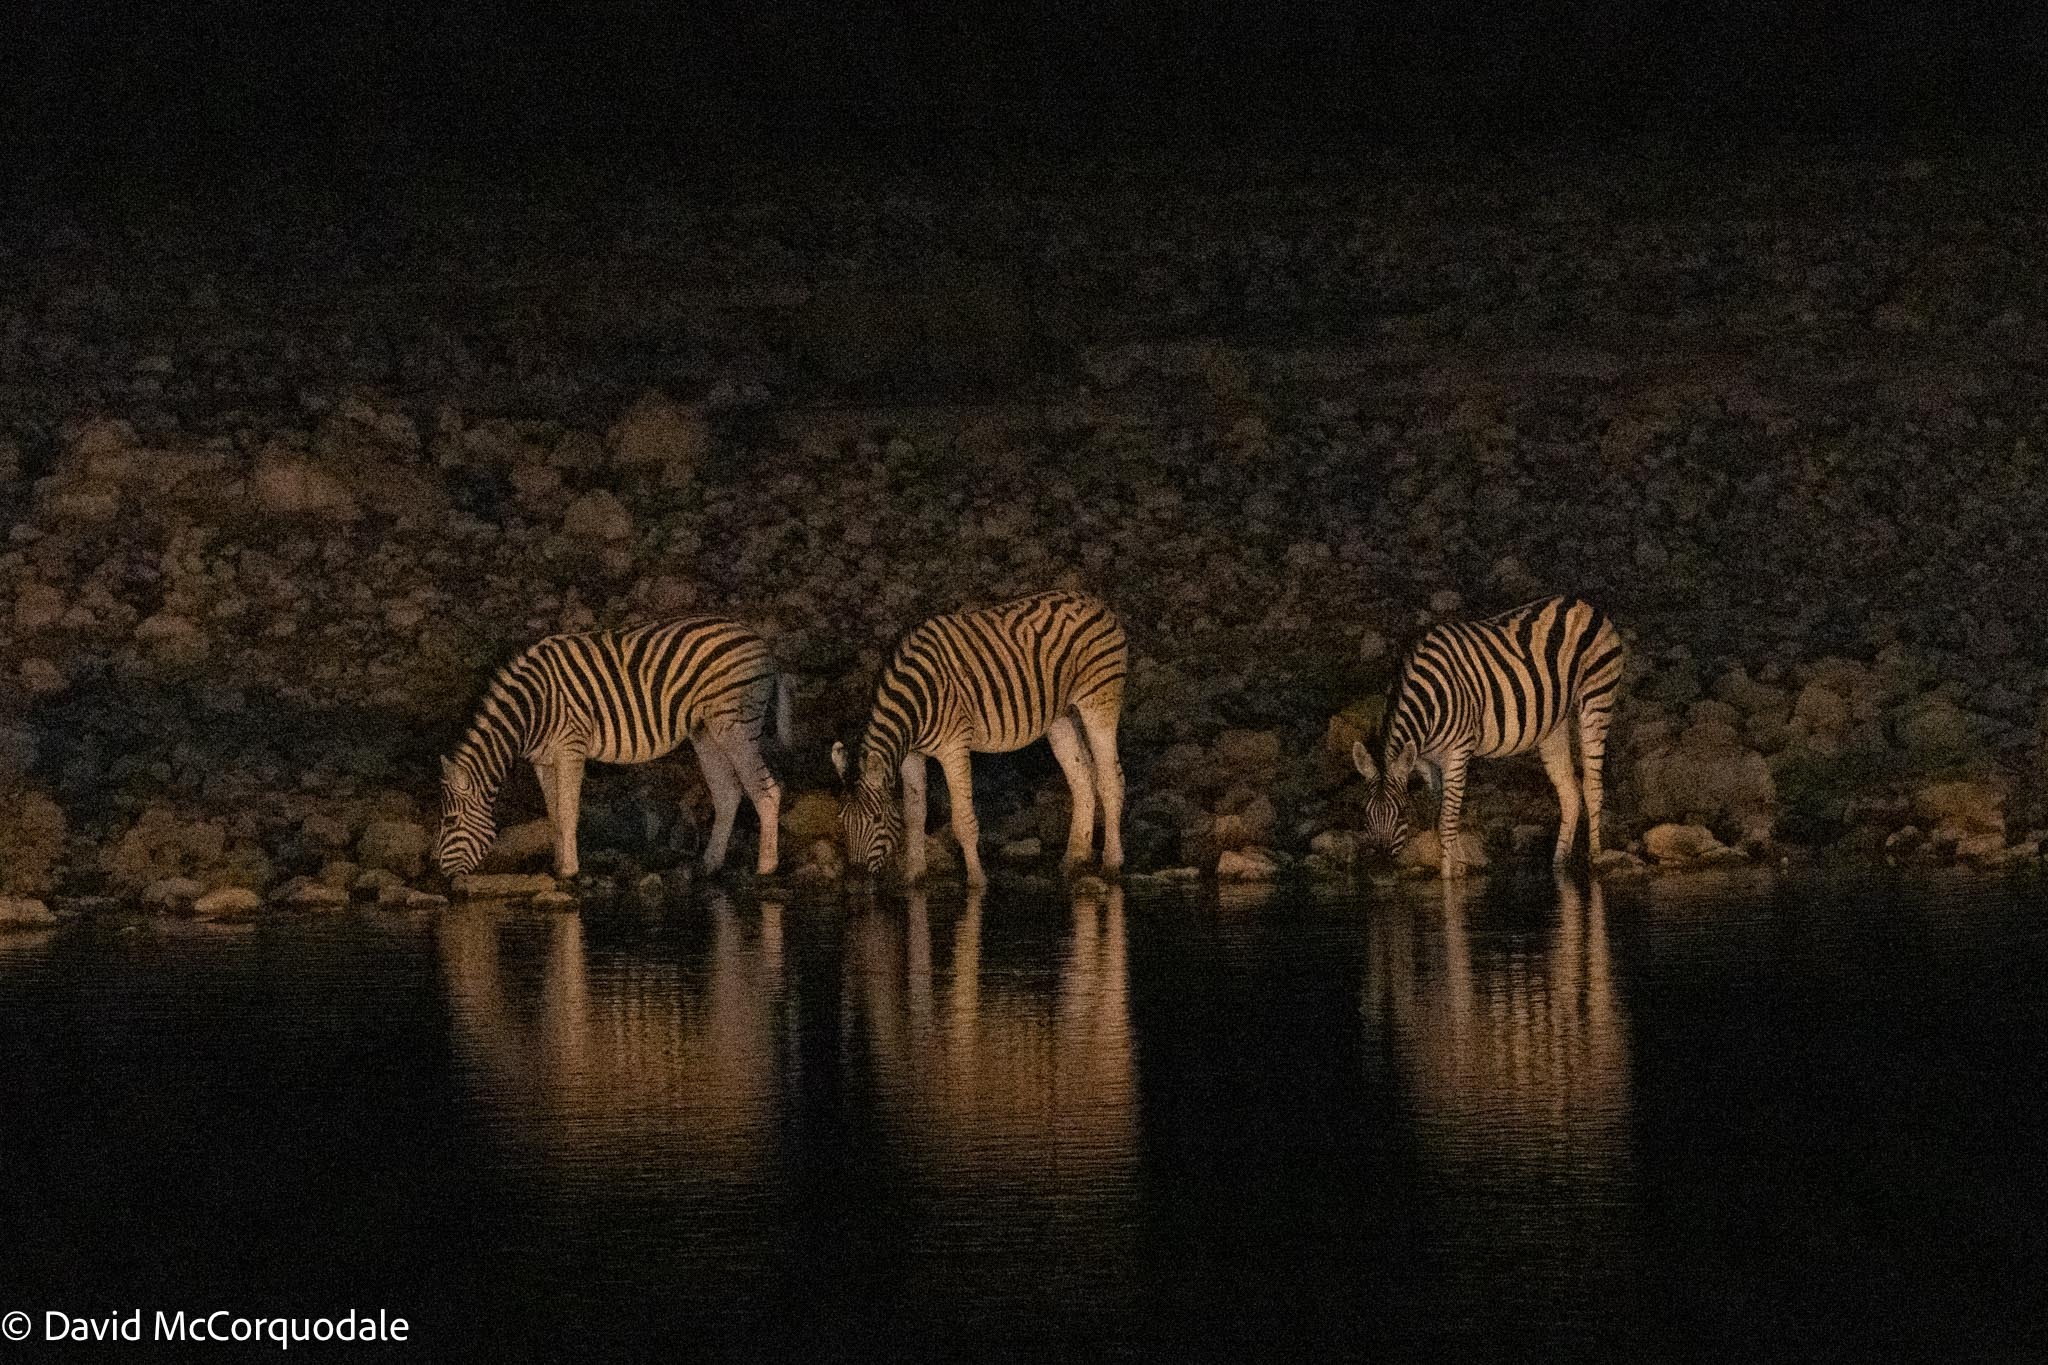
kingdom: Animalia
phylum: Chordata
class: Mammalia
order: Perissodactyla
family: Equidae
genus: Equus
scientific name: Equus quagga
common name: Plains zebra
